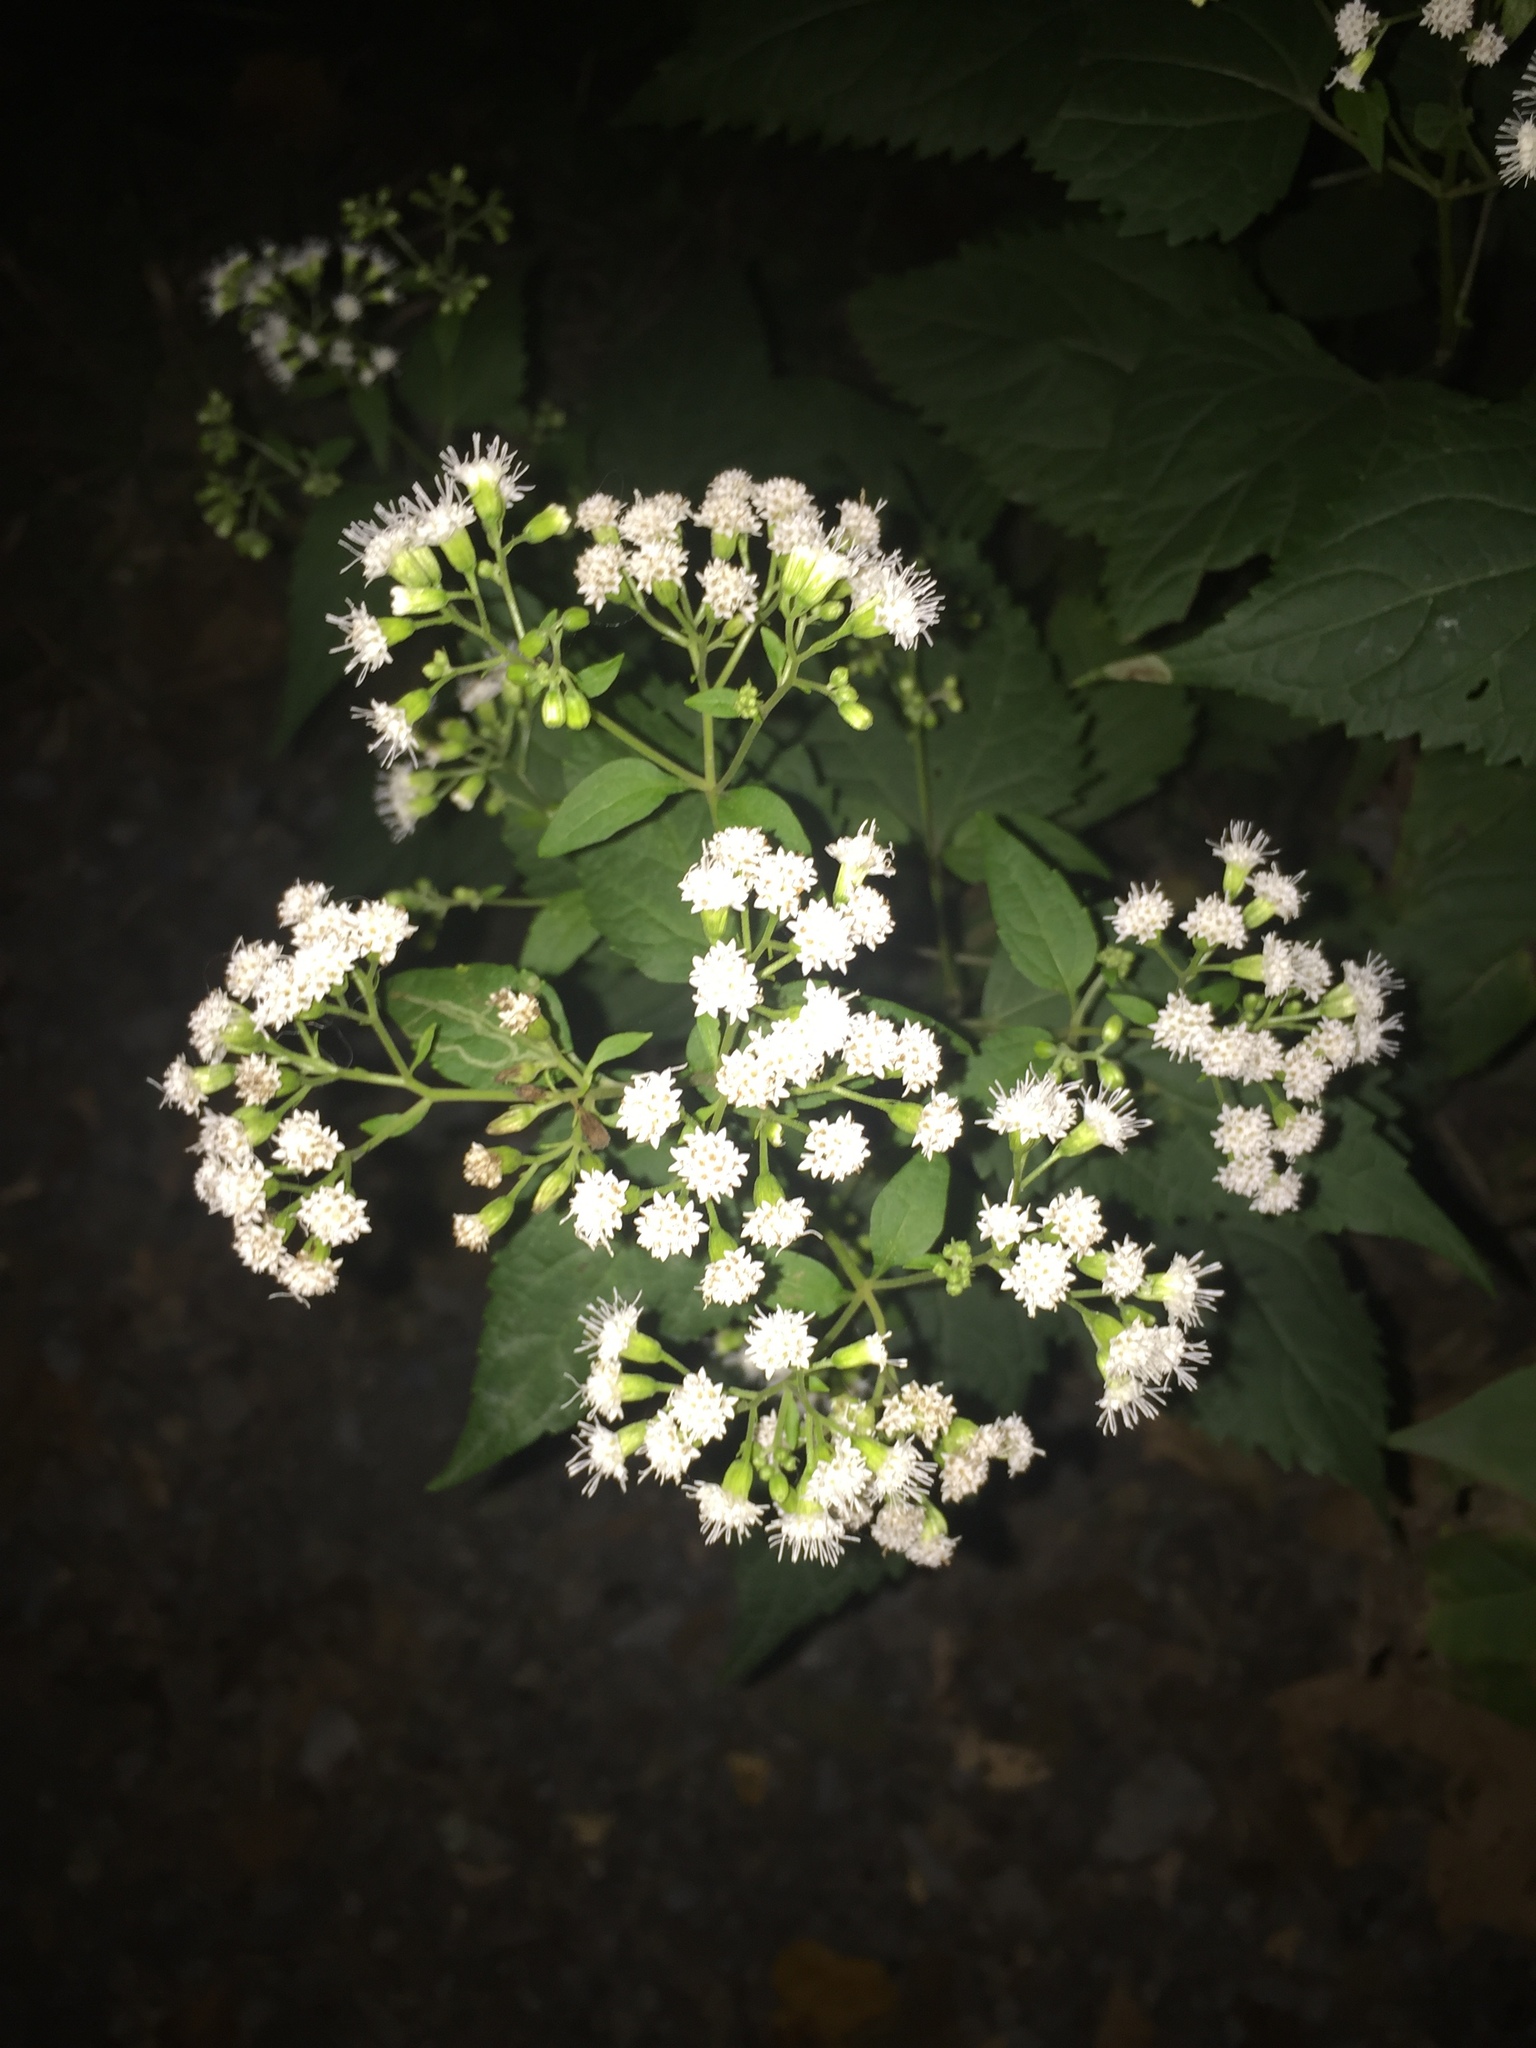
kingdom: Plantae
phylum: Tracheophyta
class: Magnoliopsida
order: Asterales
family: Asteraceae
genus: Ageratina
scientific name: Ageratina altissima
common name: White snakeroot
